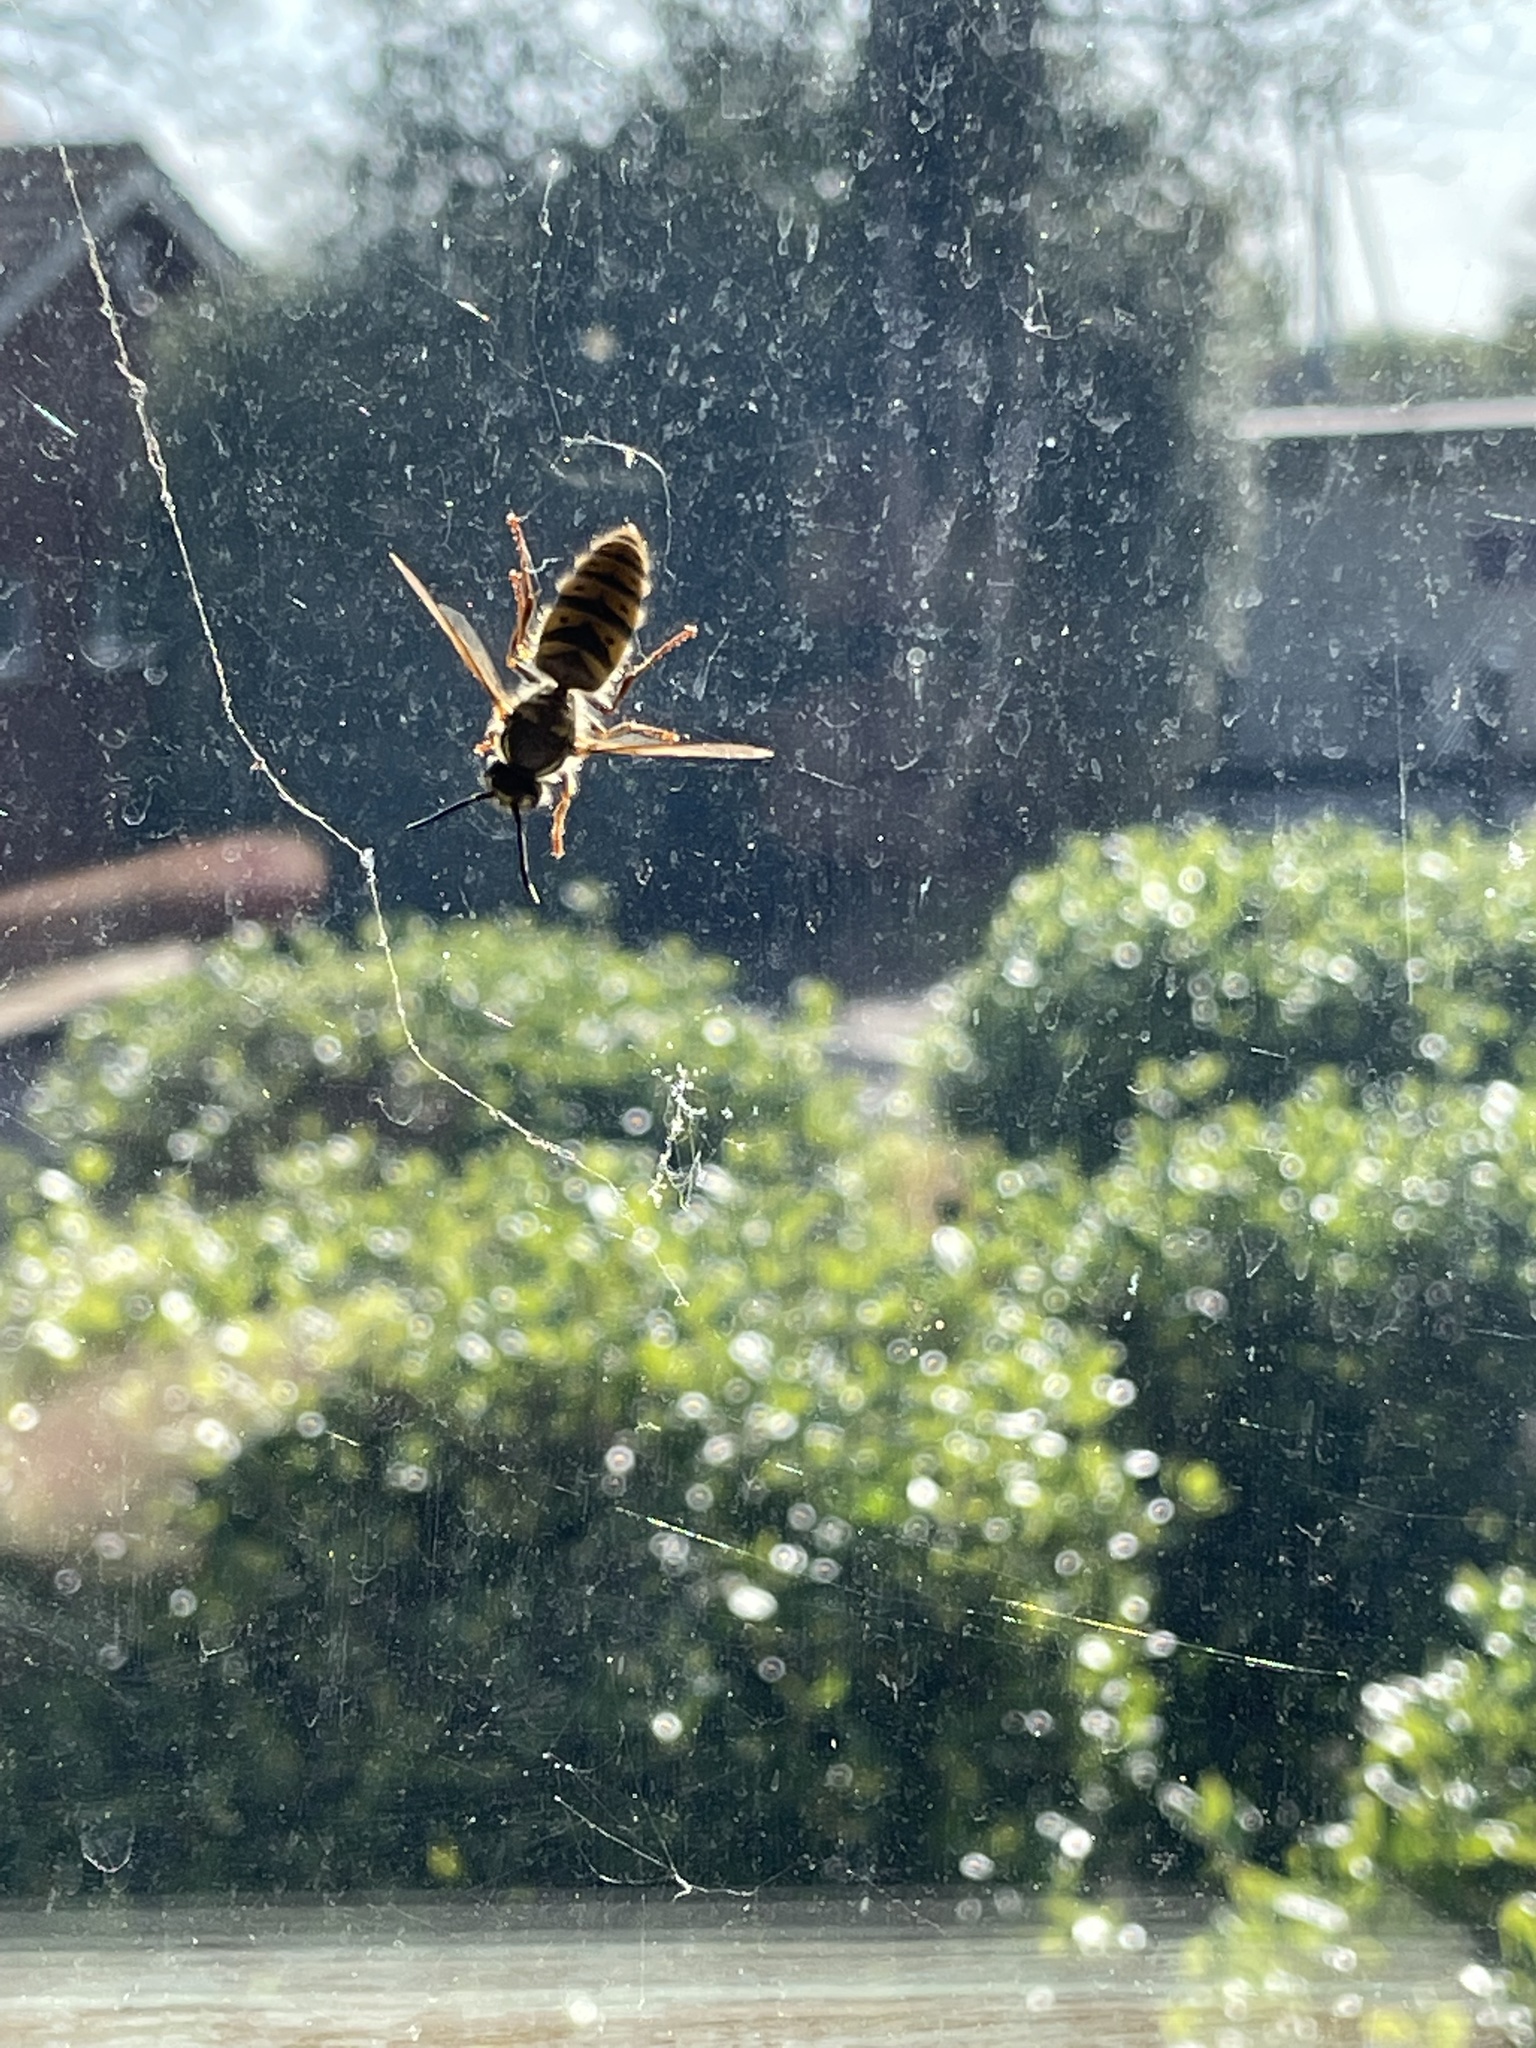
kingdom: Animalia
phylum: Arthropoda
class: Insecta
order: Hymenoptera
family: Vespidae
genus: Vespula
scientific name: Vespula vulgaris
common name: Common wasp
